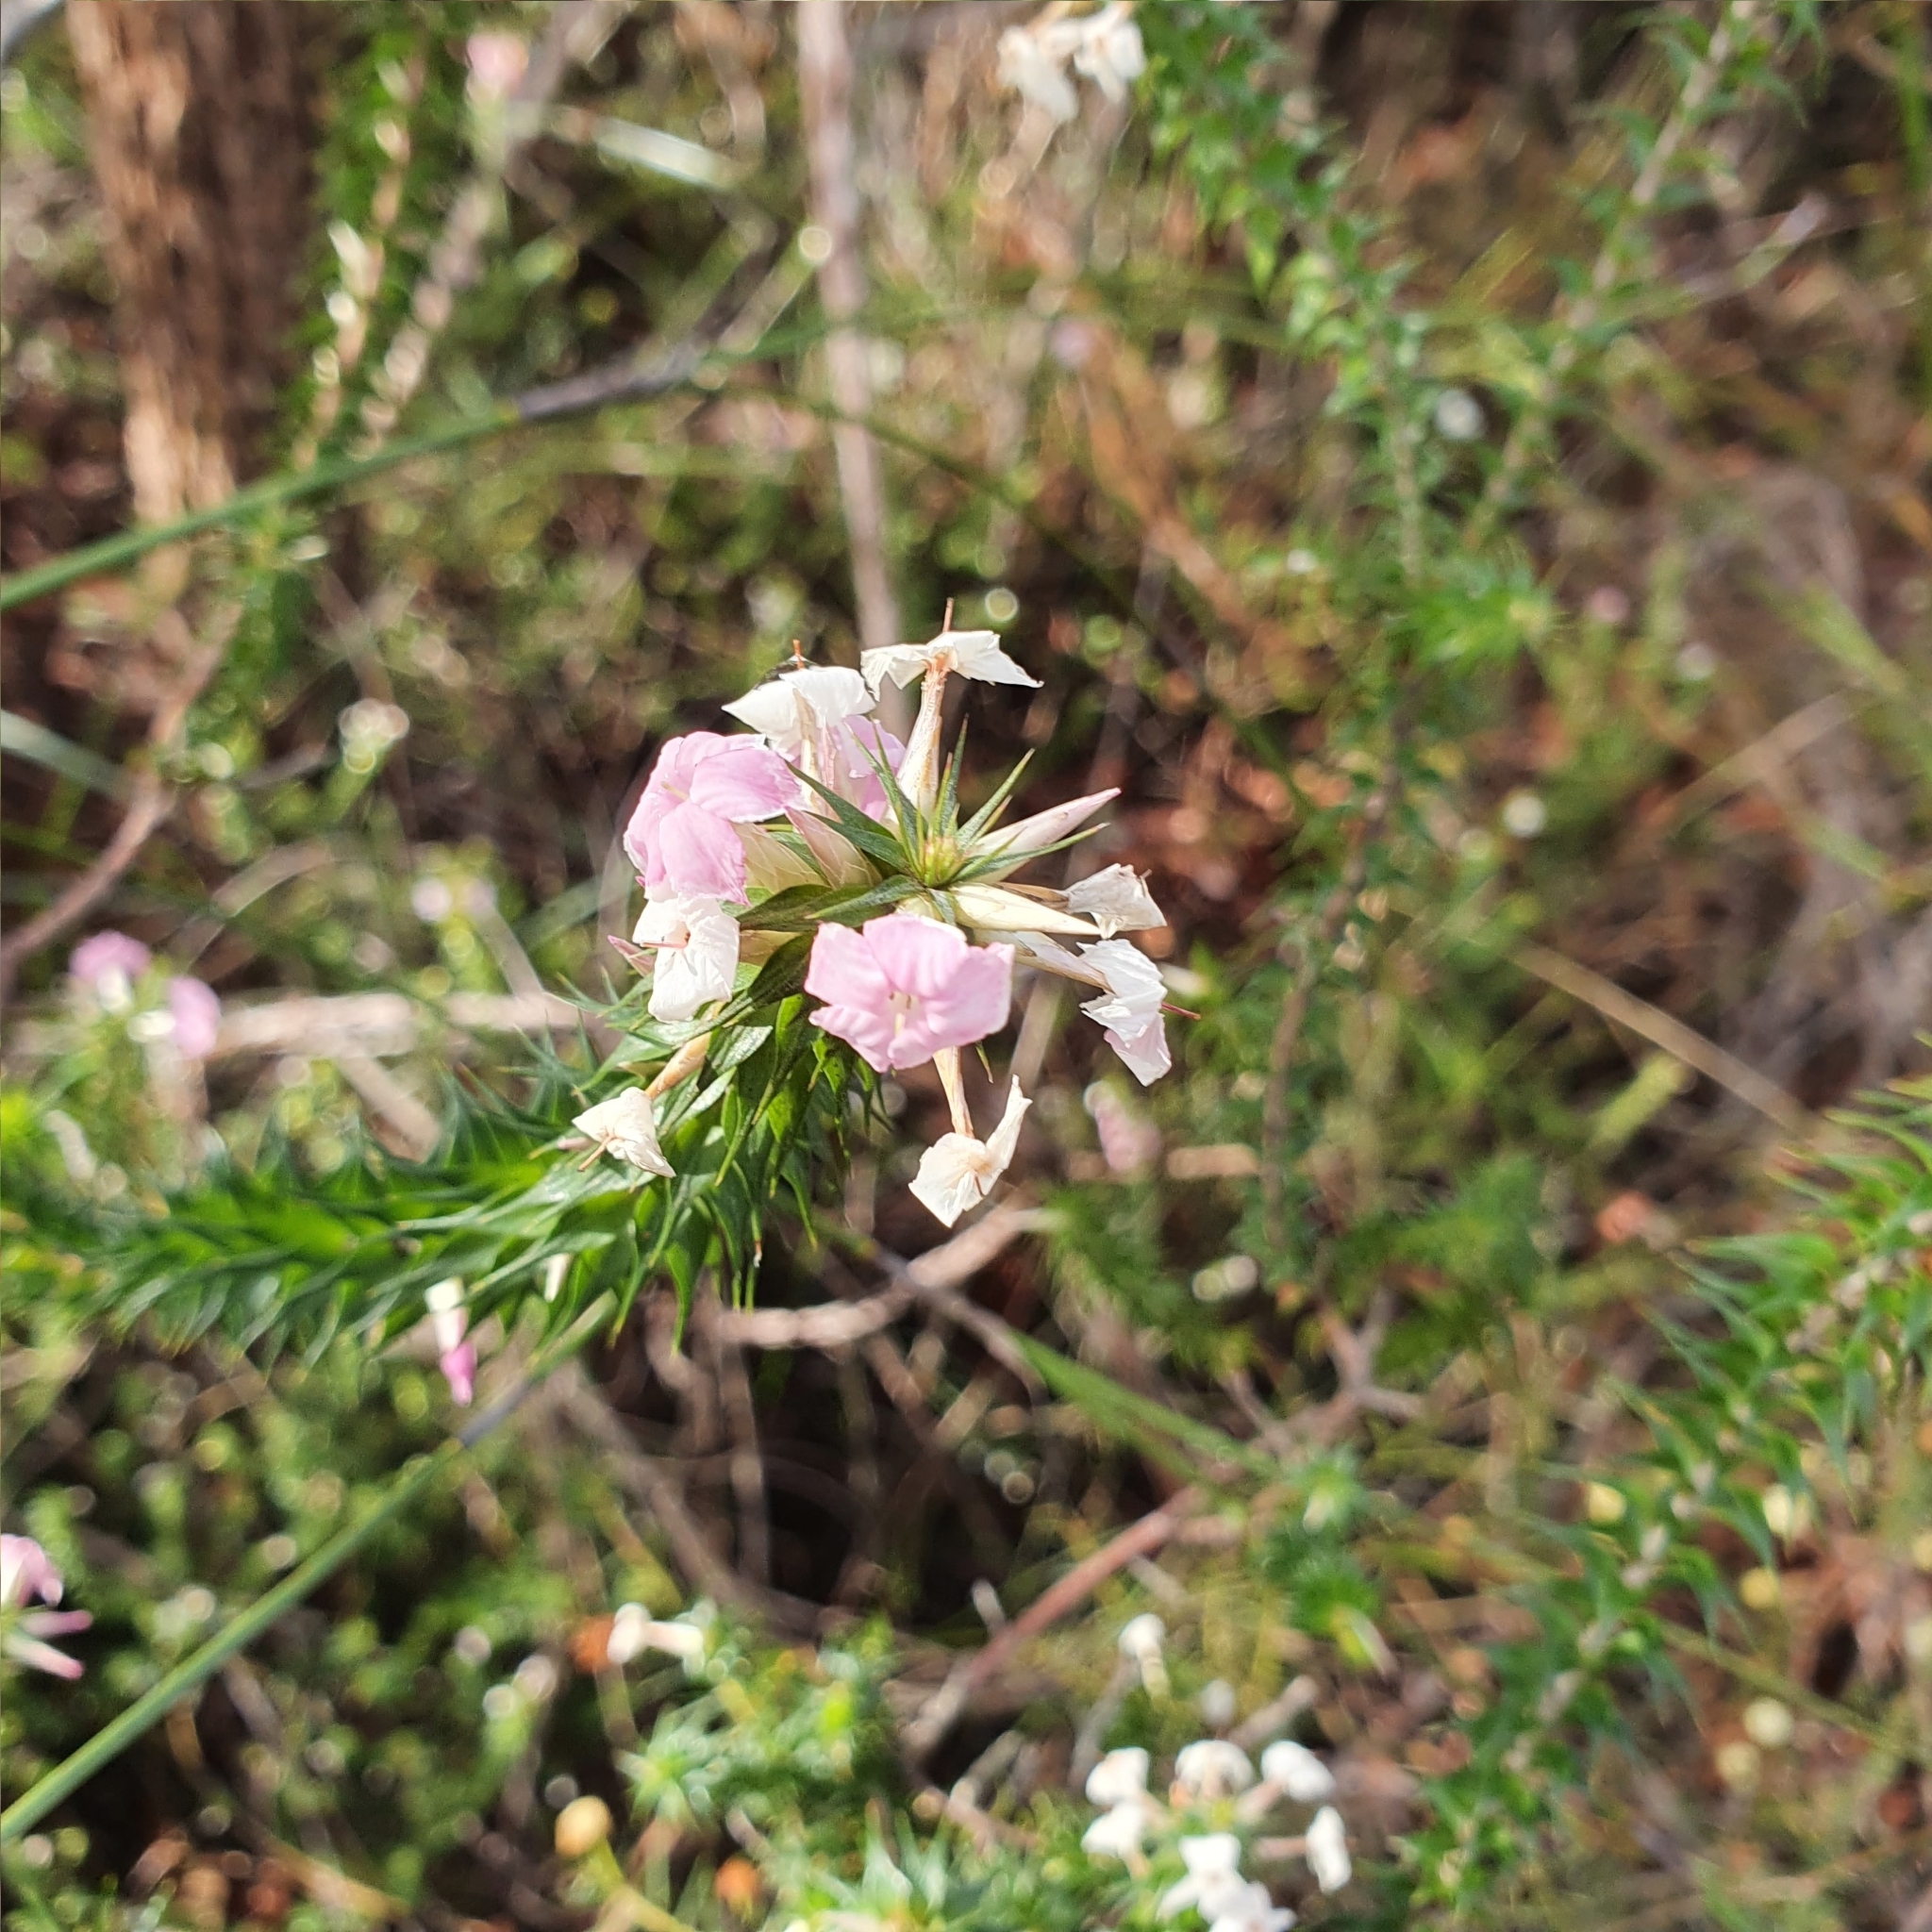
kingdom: Plantae
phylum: Tracheophyta
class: Magnoliopsida
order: Ericales
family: Ericaceae
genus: Woollsia
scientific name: Woollsia pungens
